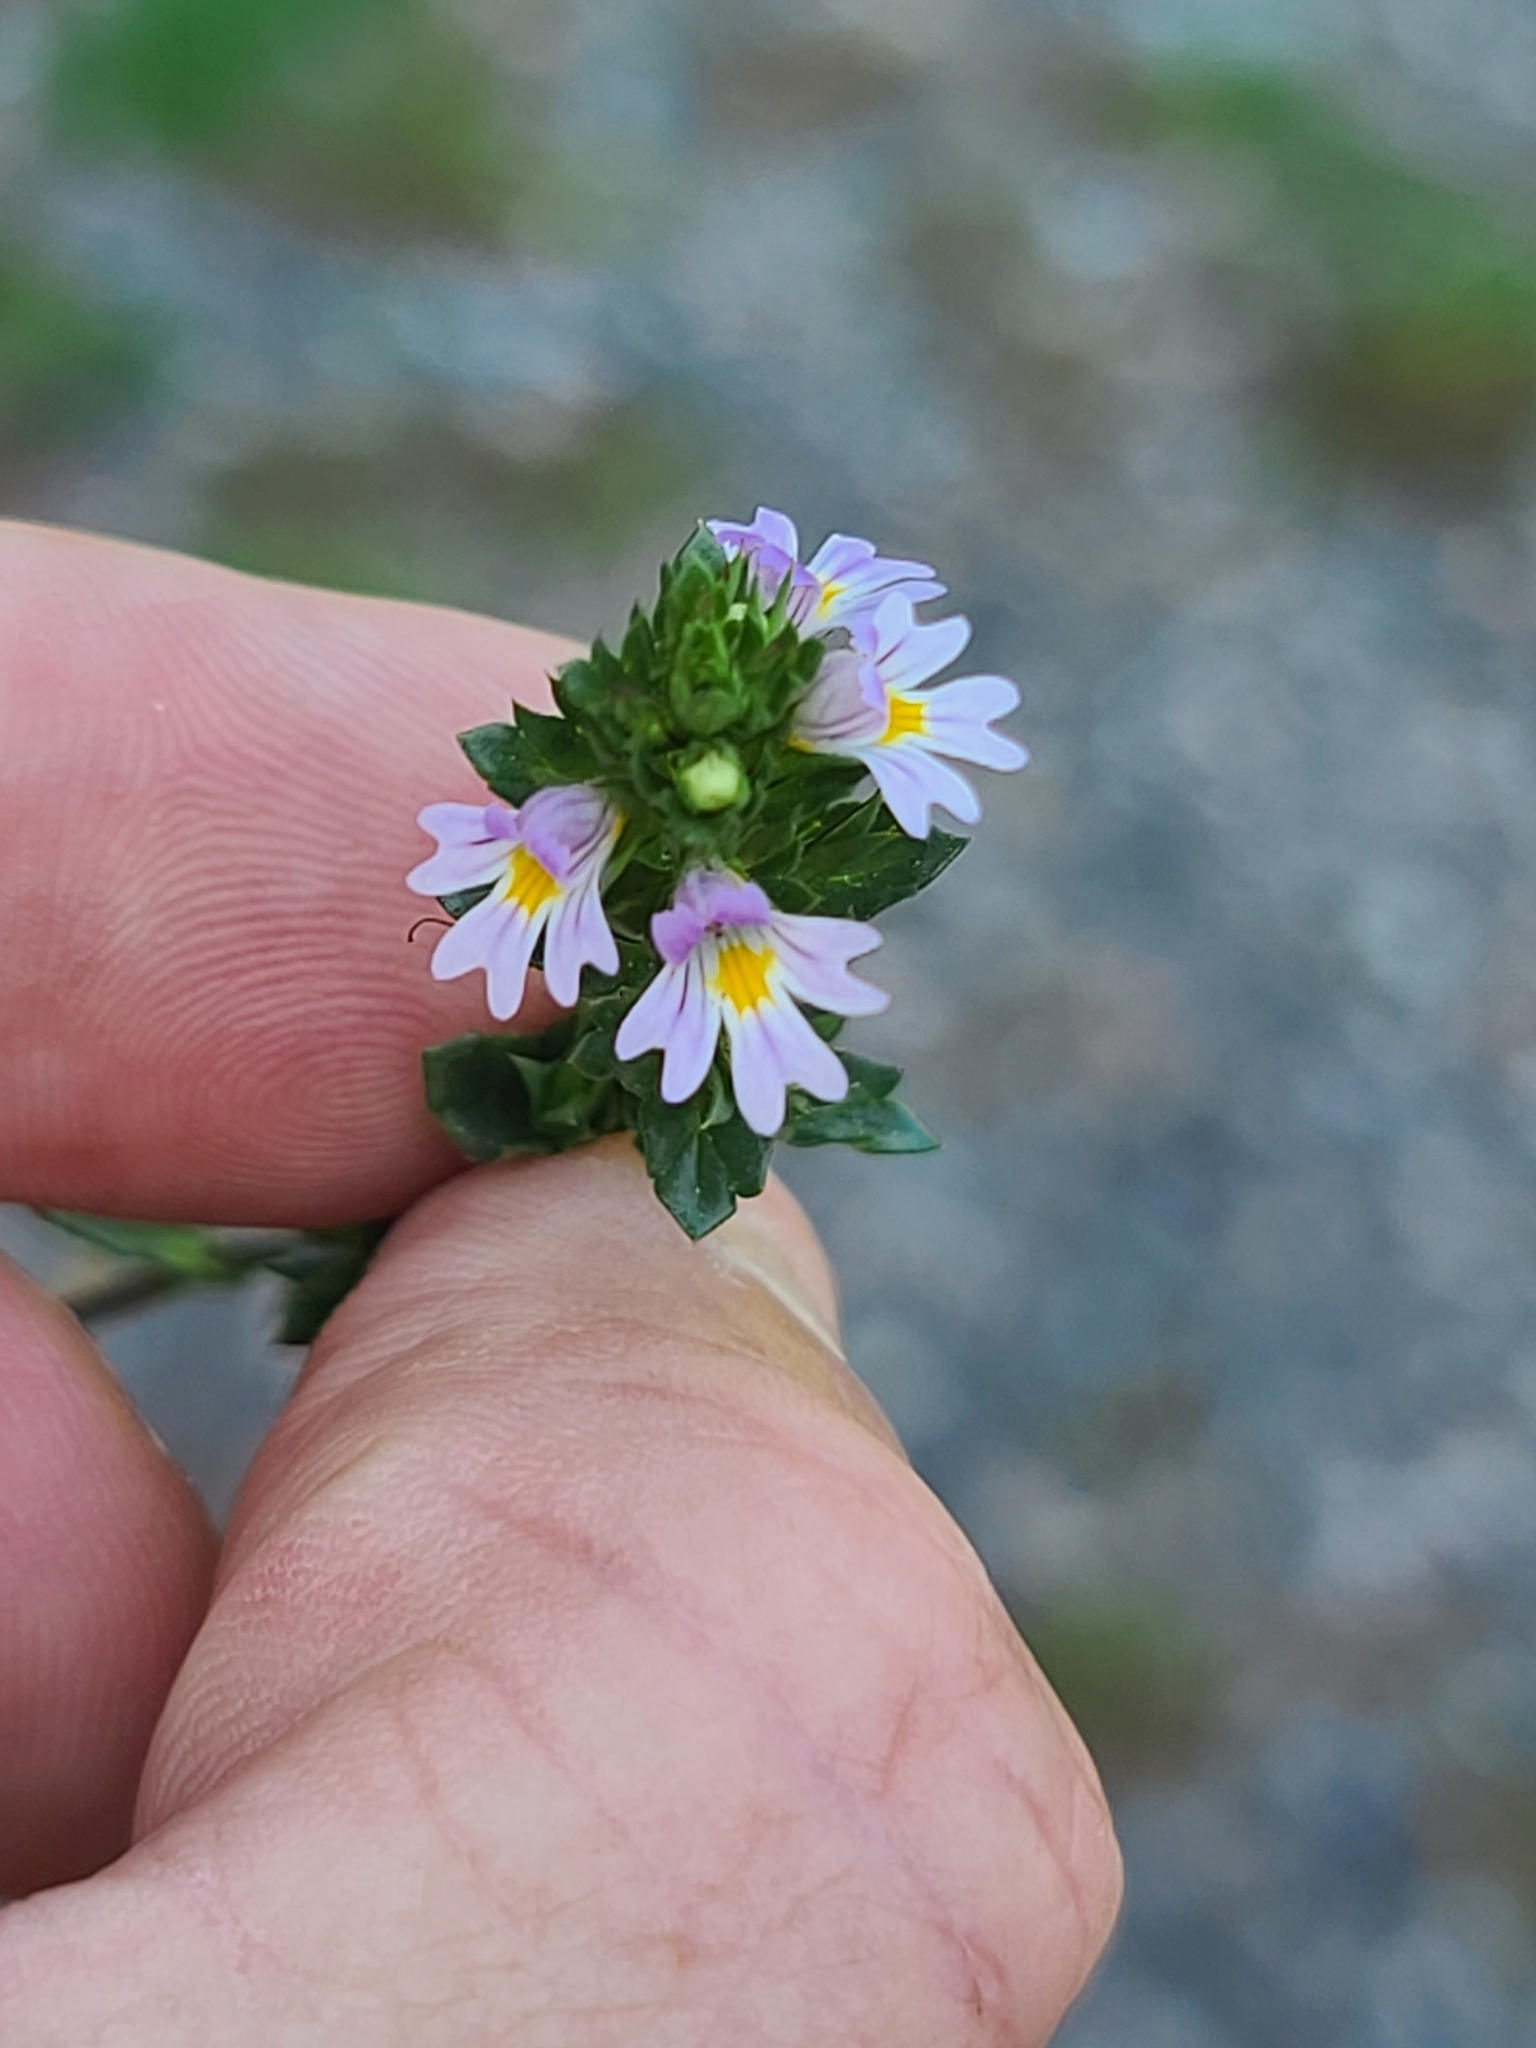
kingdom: Plantae
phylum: Tracheophyta
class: Magnoliopsida
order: Lamiales
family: Orobanchaceae
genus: Euphrasia
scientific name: Euphrasia stricta
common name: Drug eyebright
